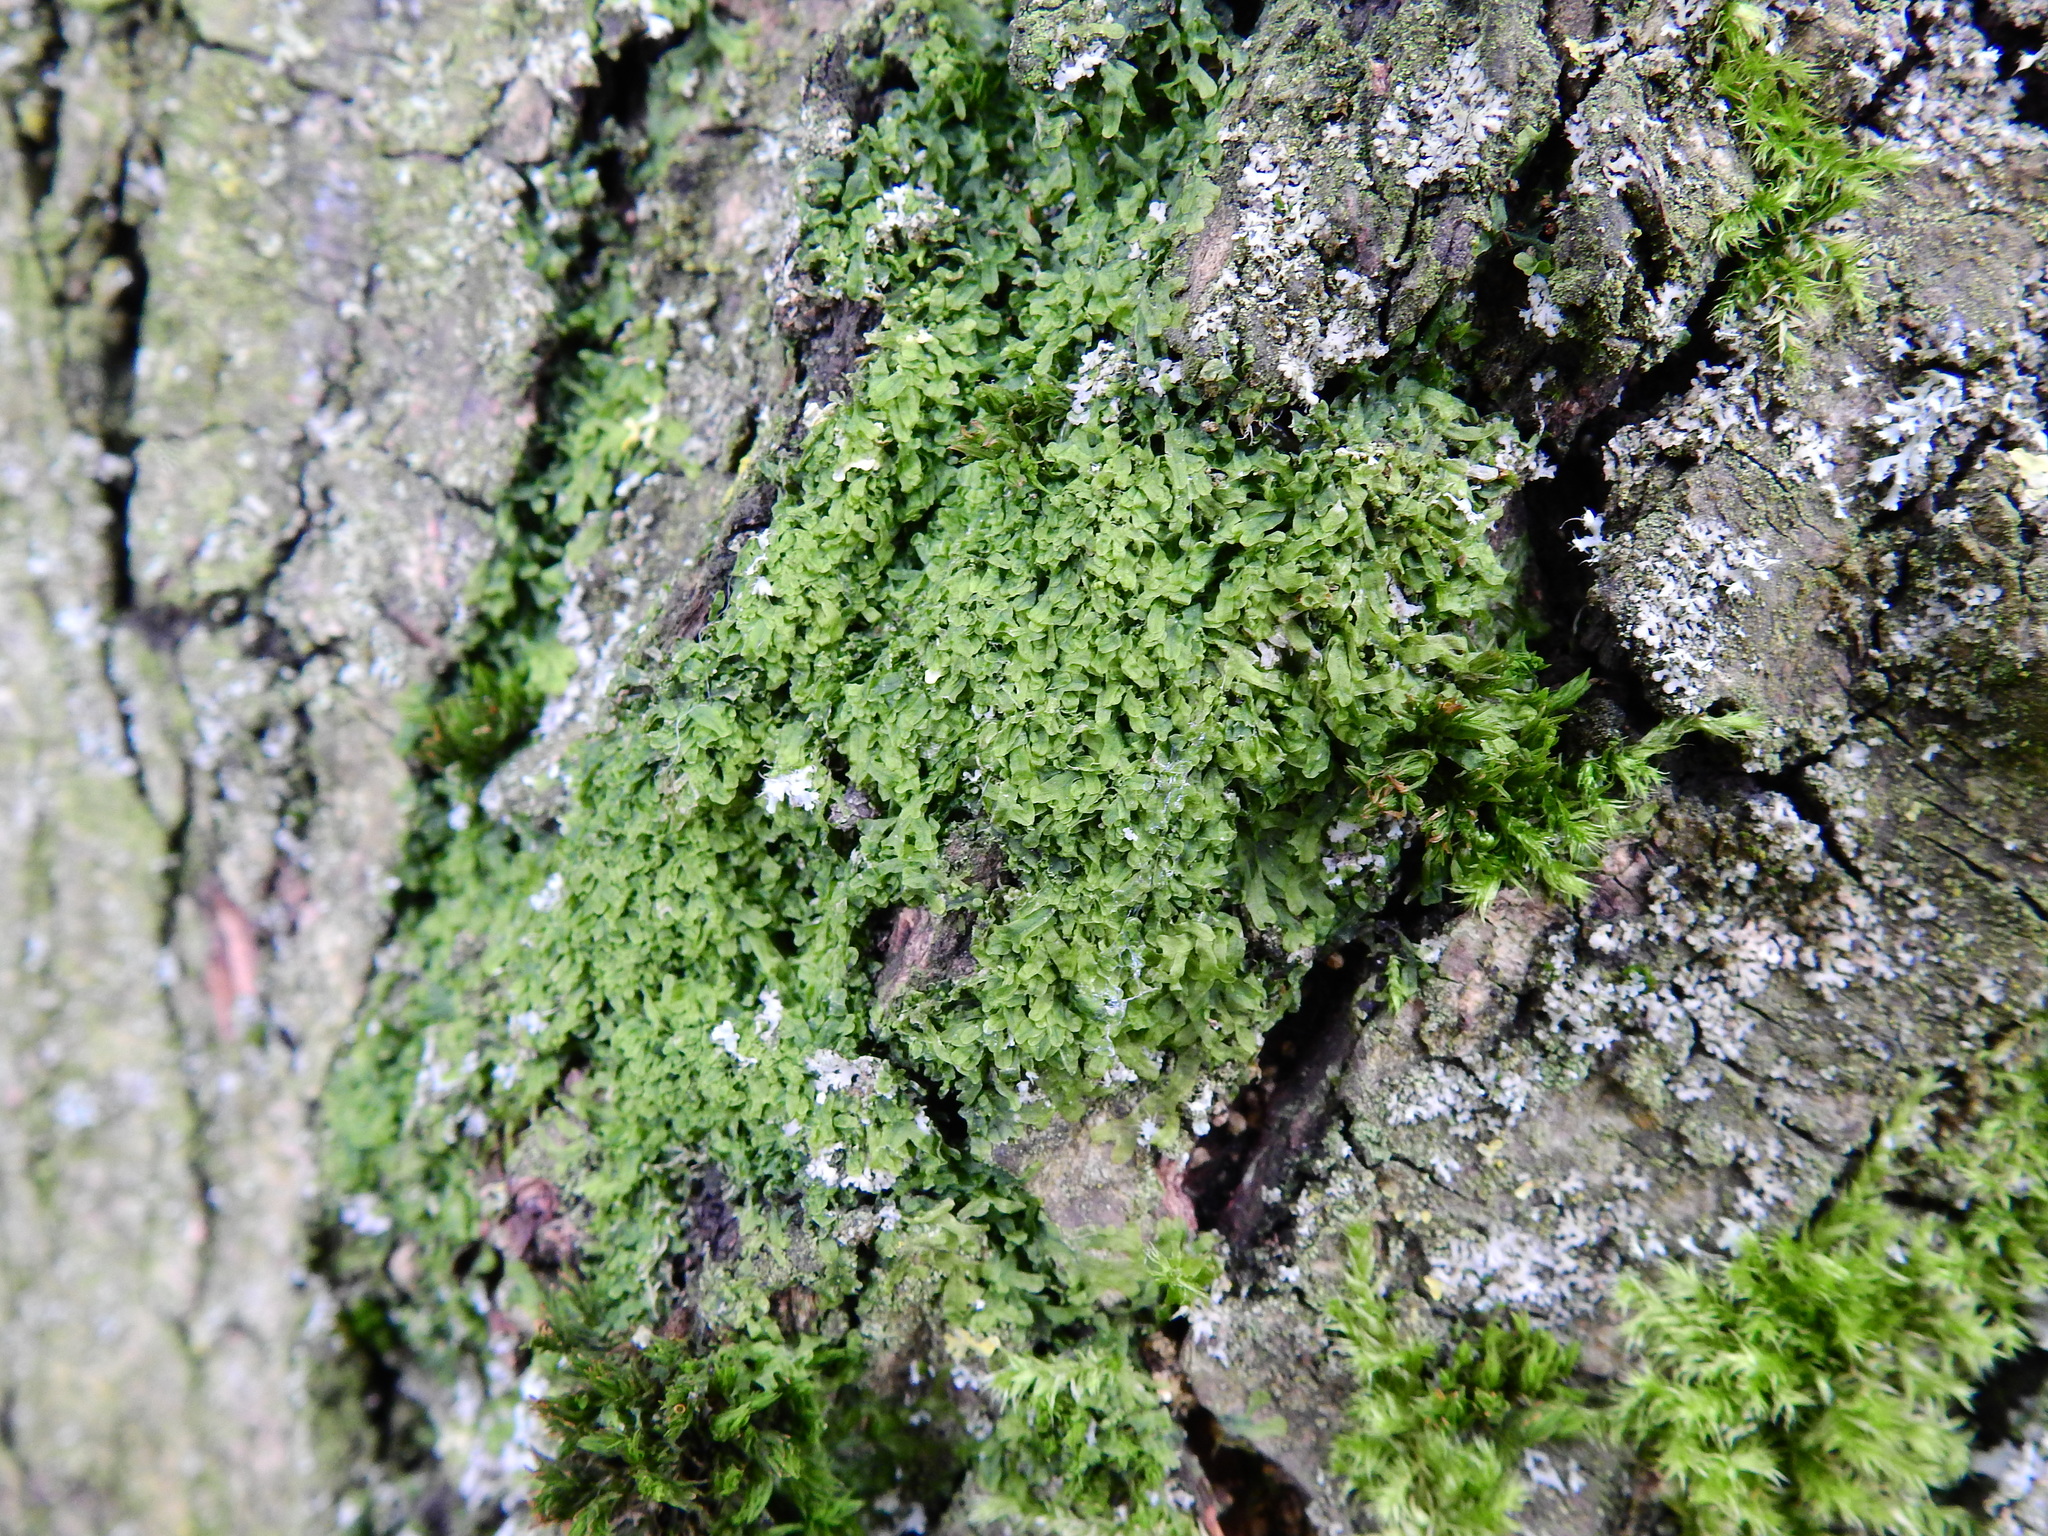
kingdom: Plantae
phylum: Marchantiophyta
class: Jungermanniopsida
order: Metzgeriales
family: Metzgeriaceae
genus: Metzgeria
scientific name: Metzgeria furcata
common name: Forked veilwort
